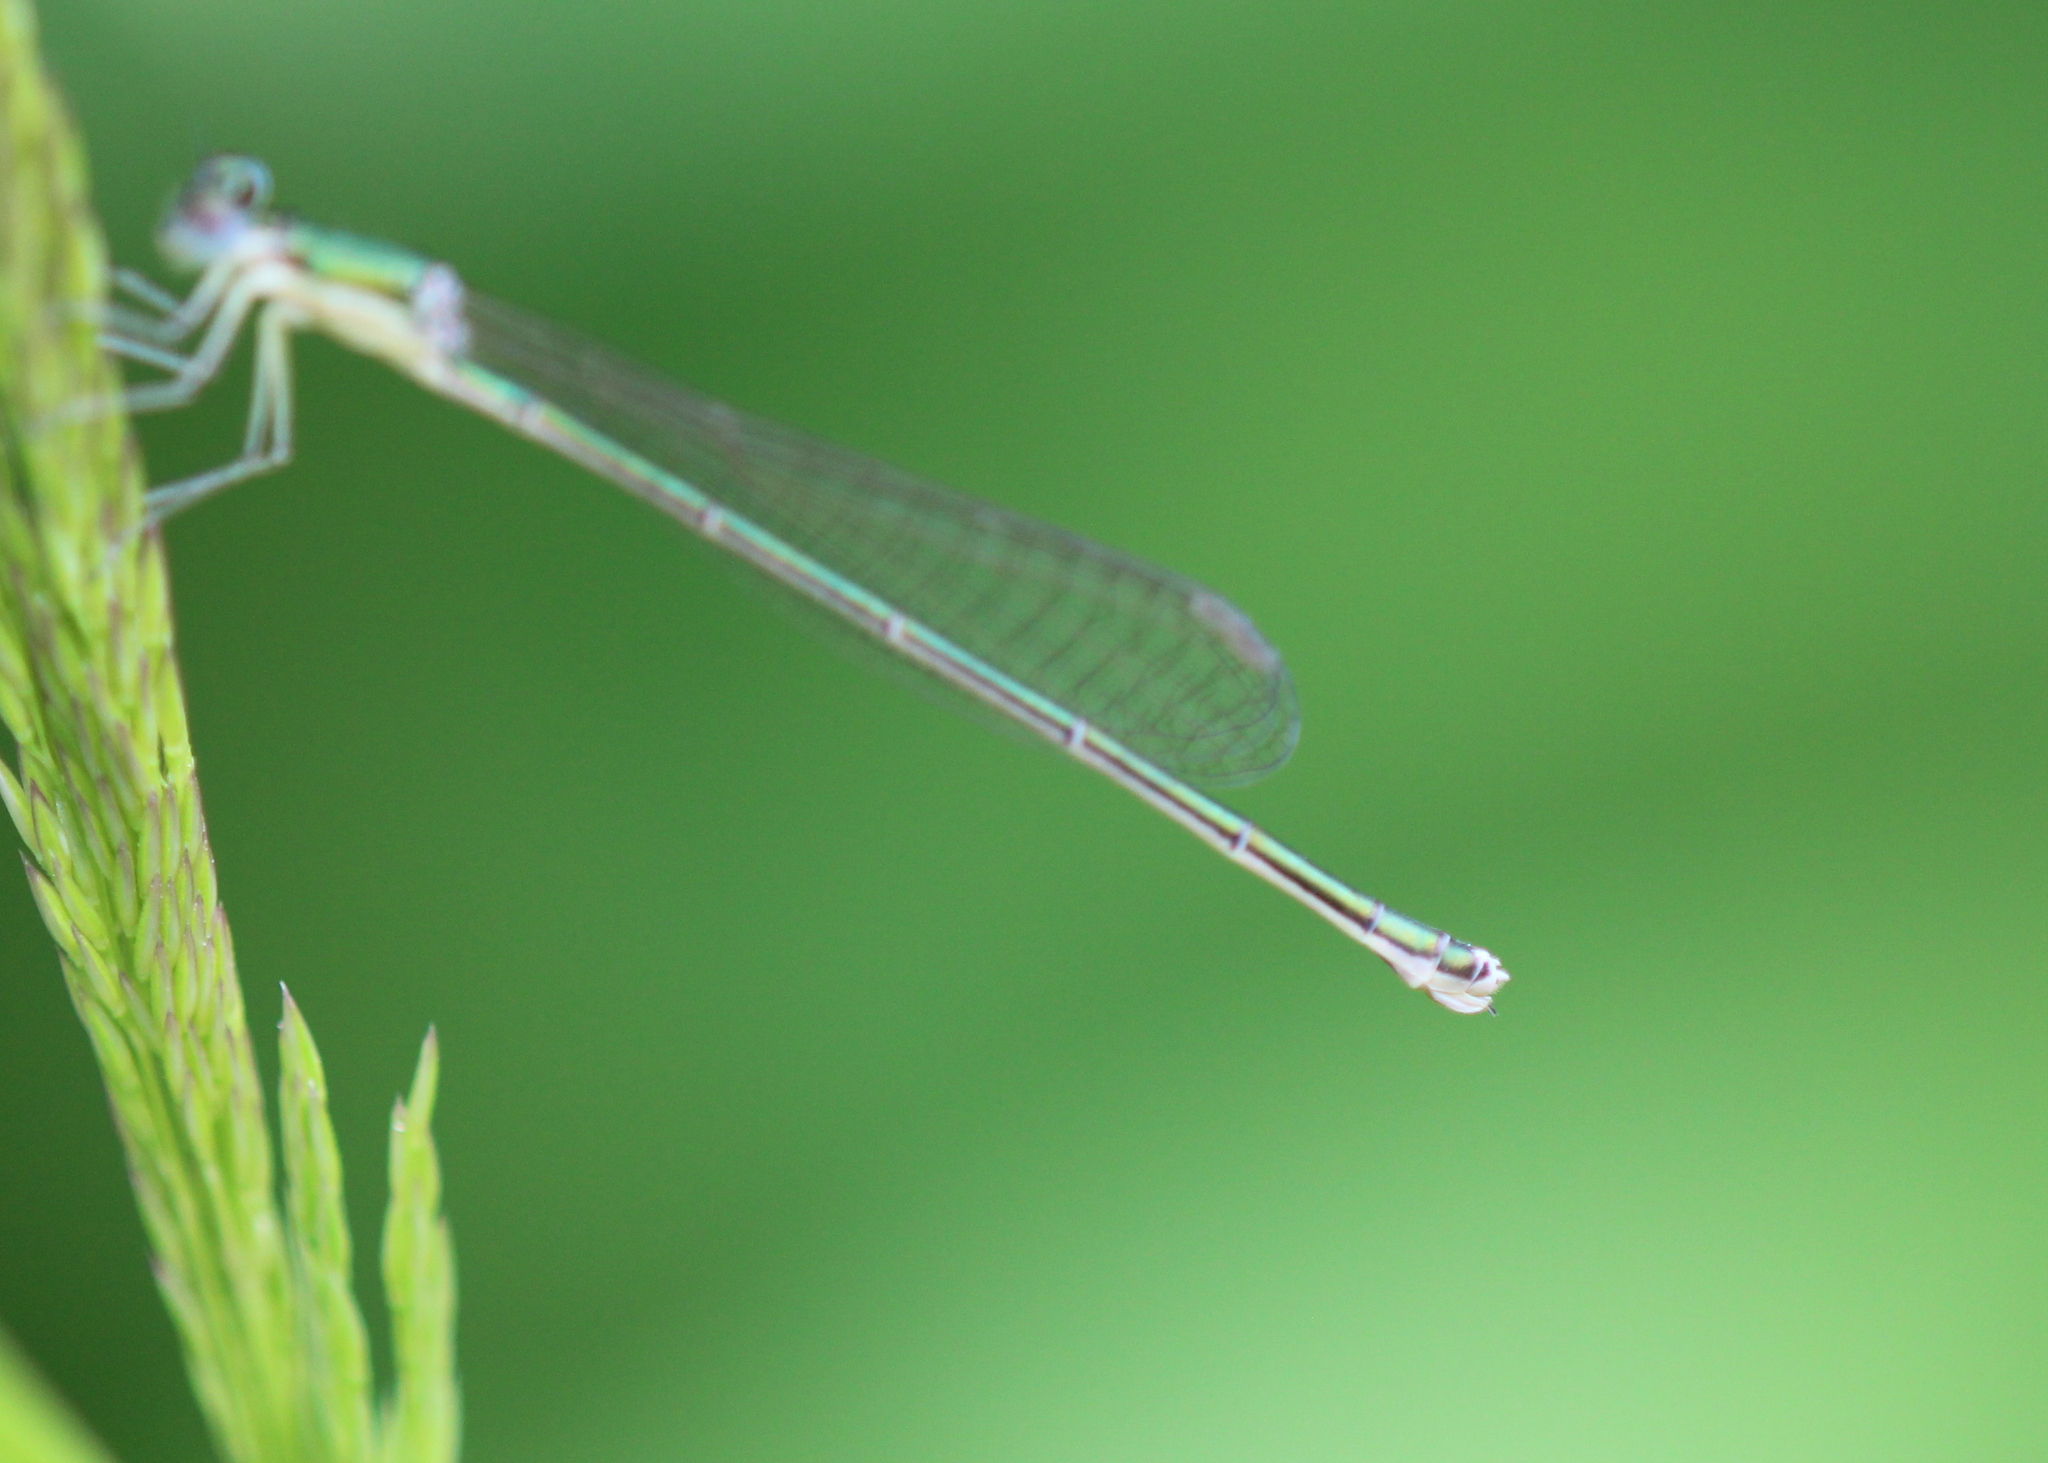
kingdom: Animalia
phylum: Arthropoda
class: Insecta
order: Odonata
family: Coenagrionidae
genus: Nehalennia
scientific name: Nehalennia irene
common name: Sedge sprite
